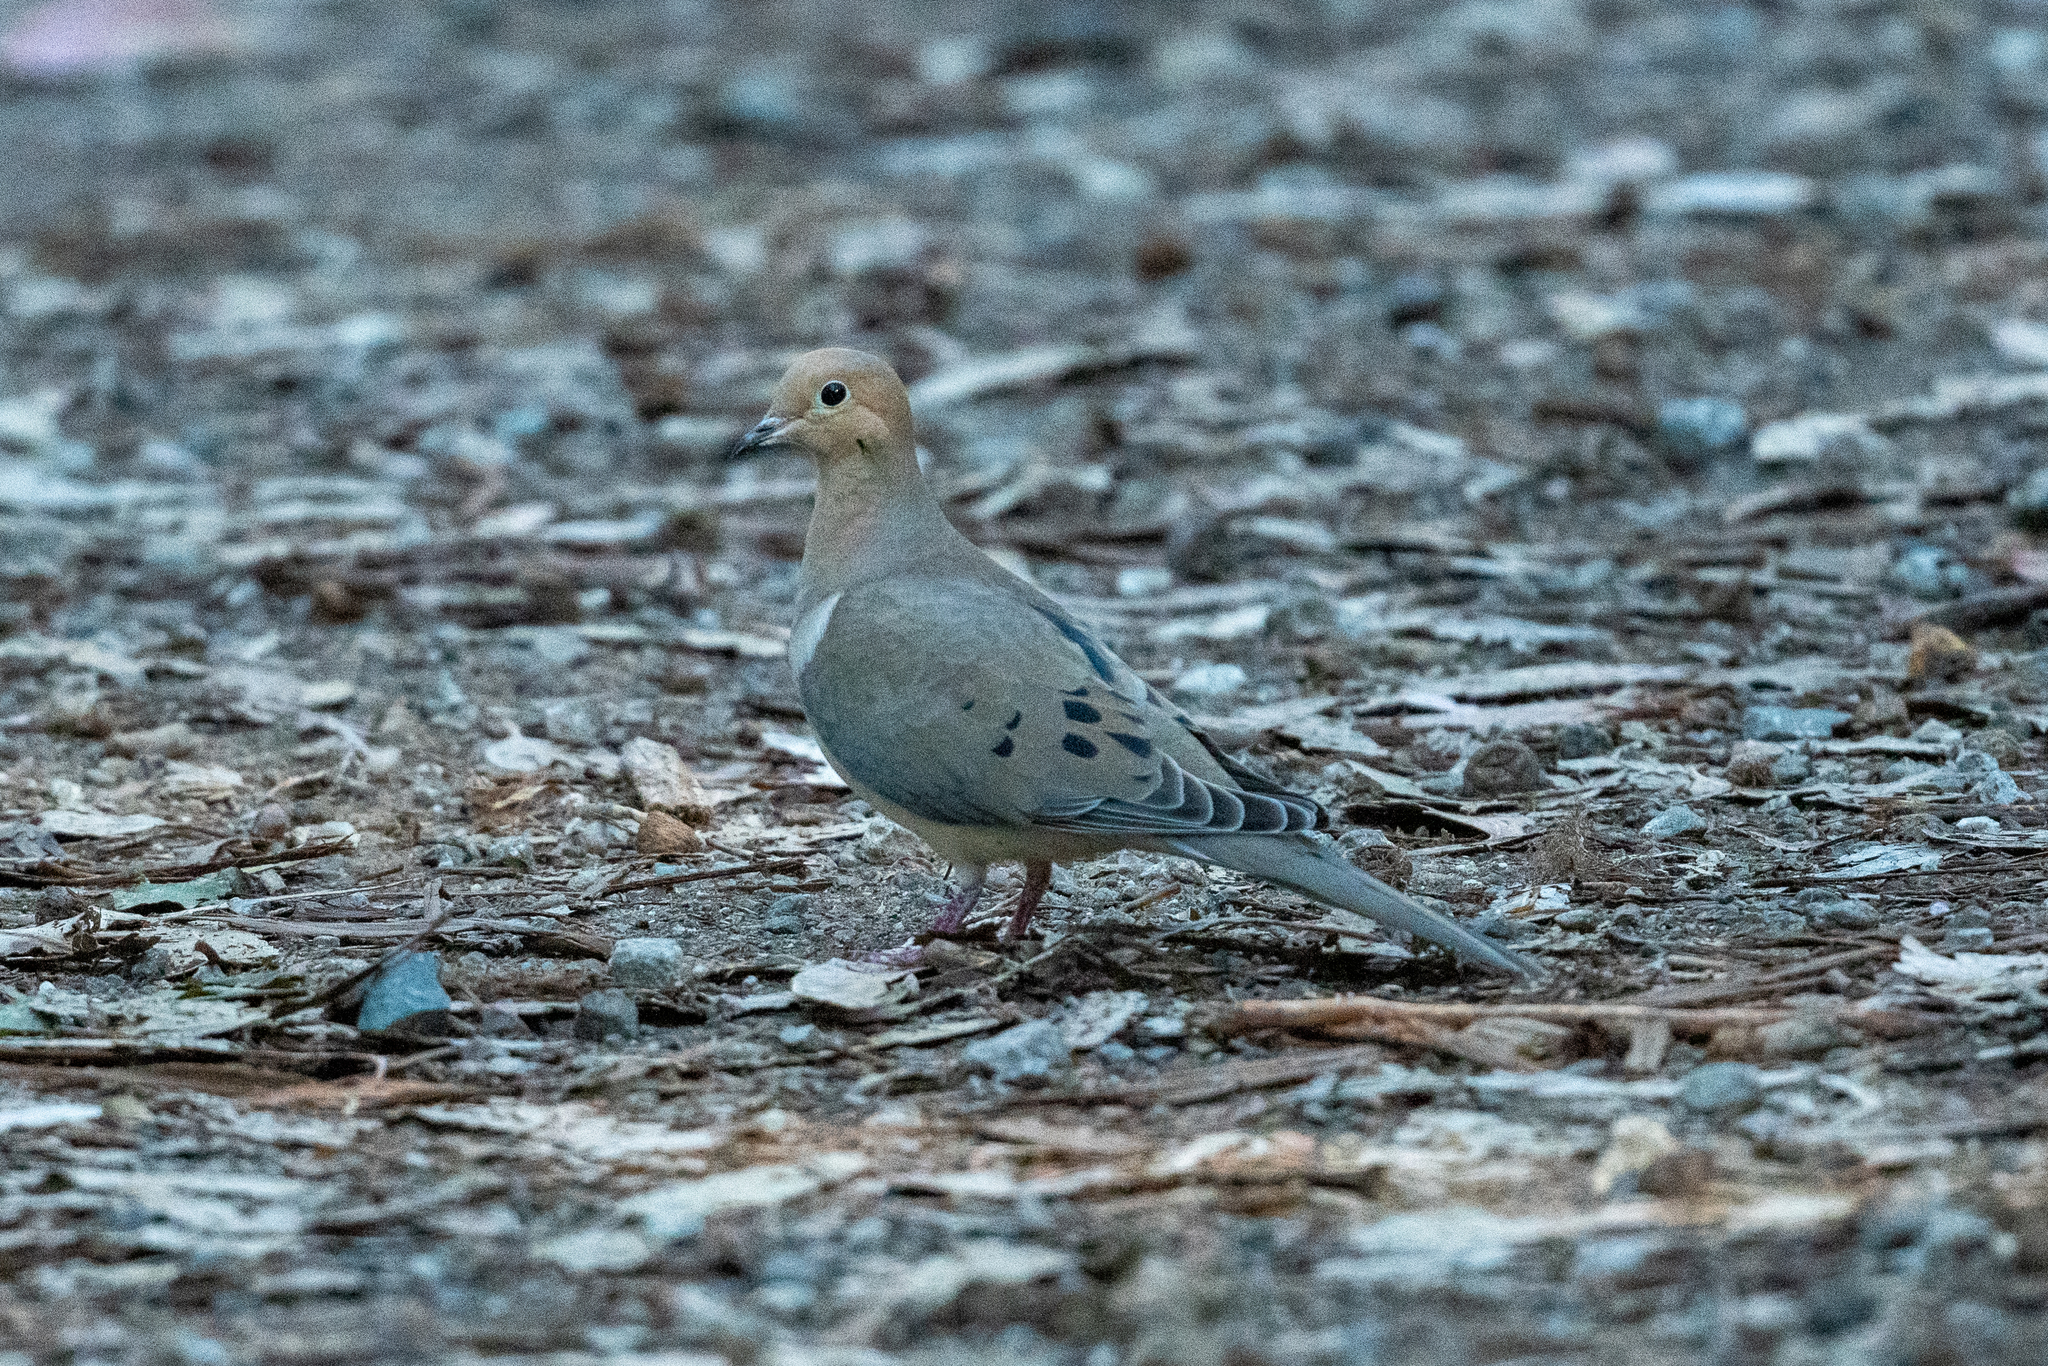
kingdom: Animalia
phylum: Chordata
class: Aves
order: Columbiformes
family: Columbidae
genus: Zenaida
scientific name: Zenaida macroura
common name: Mourning dove
